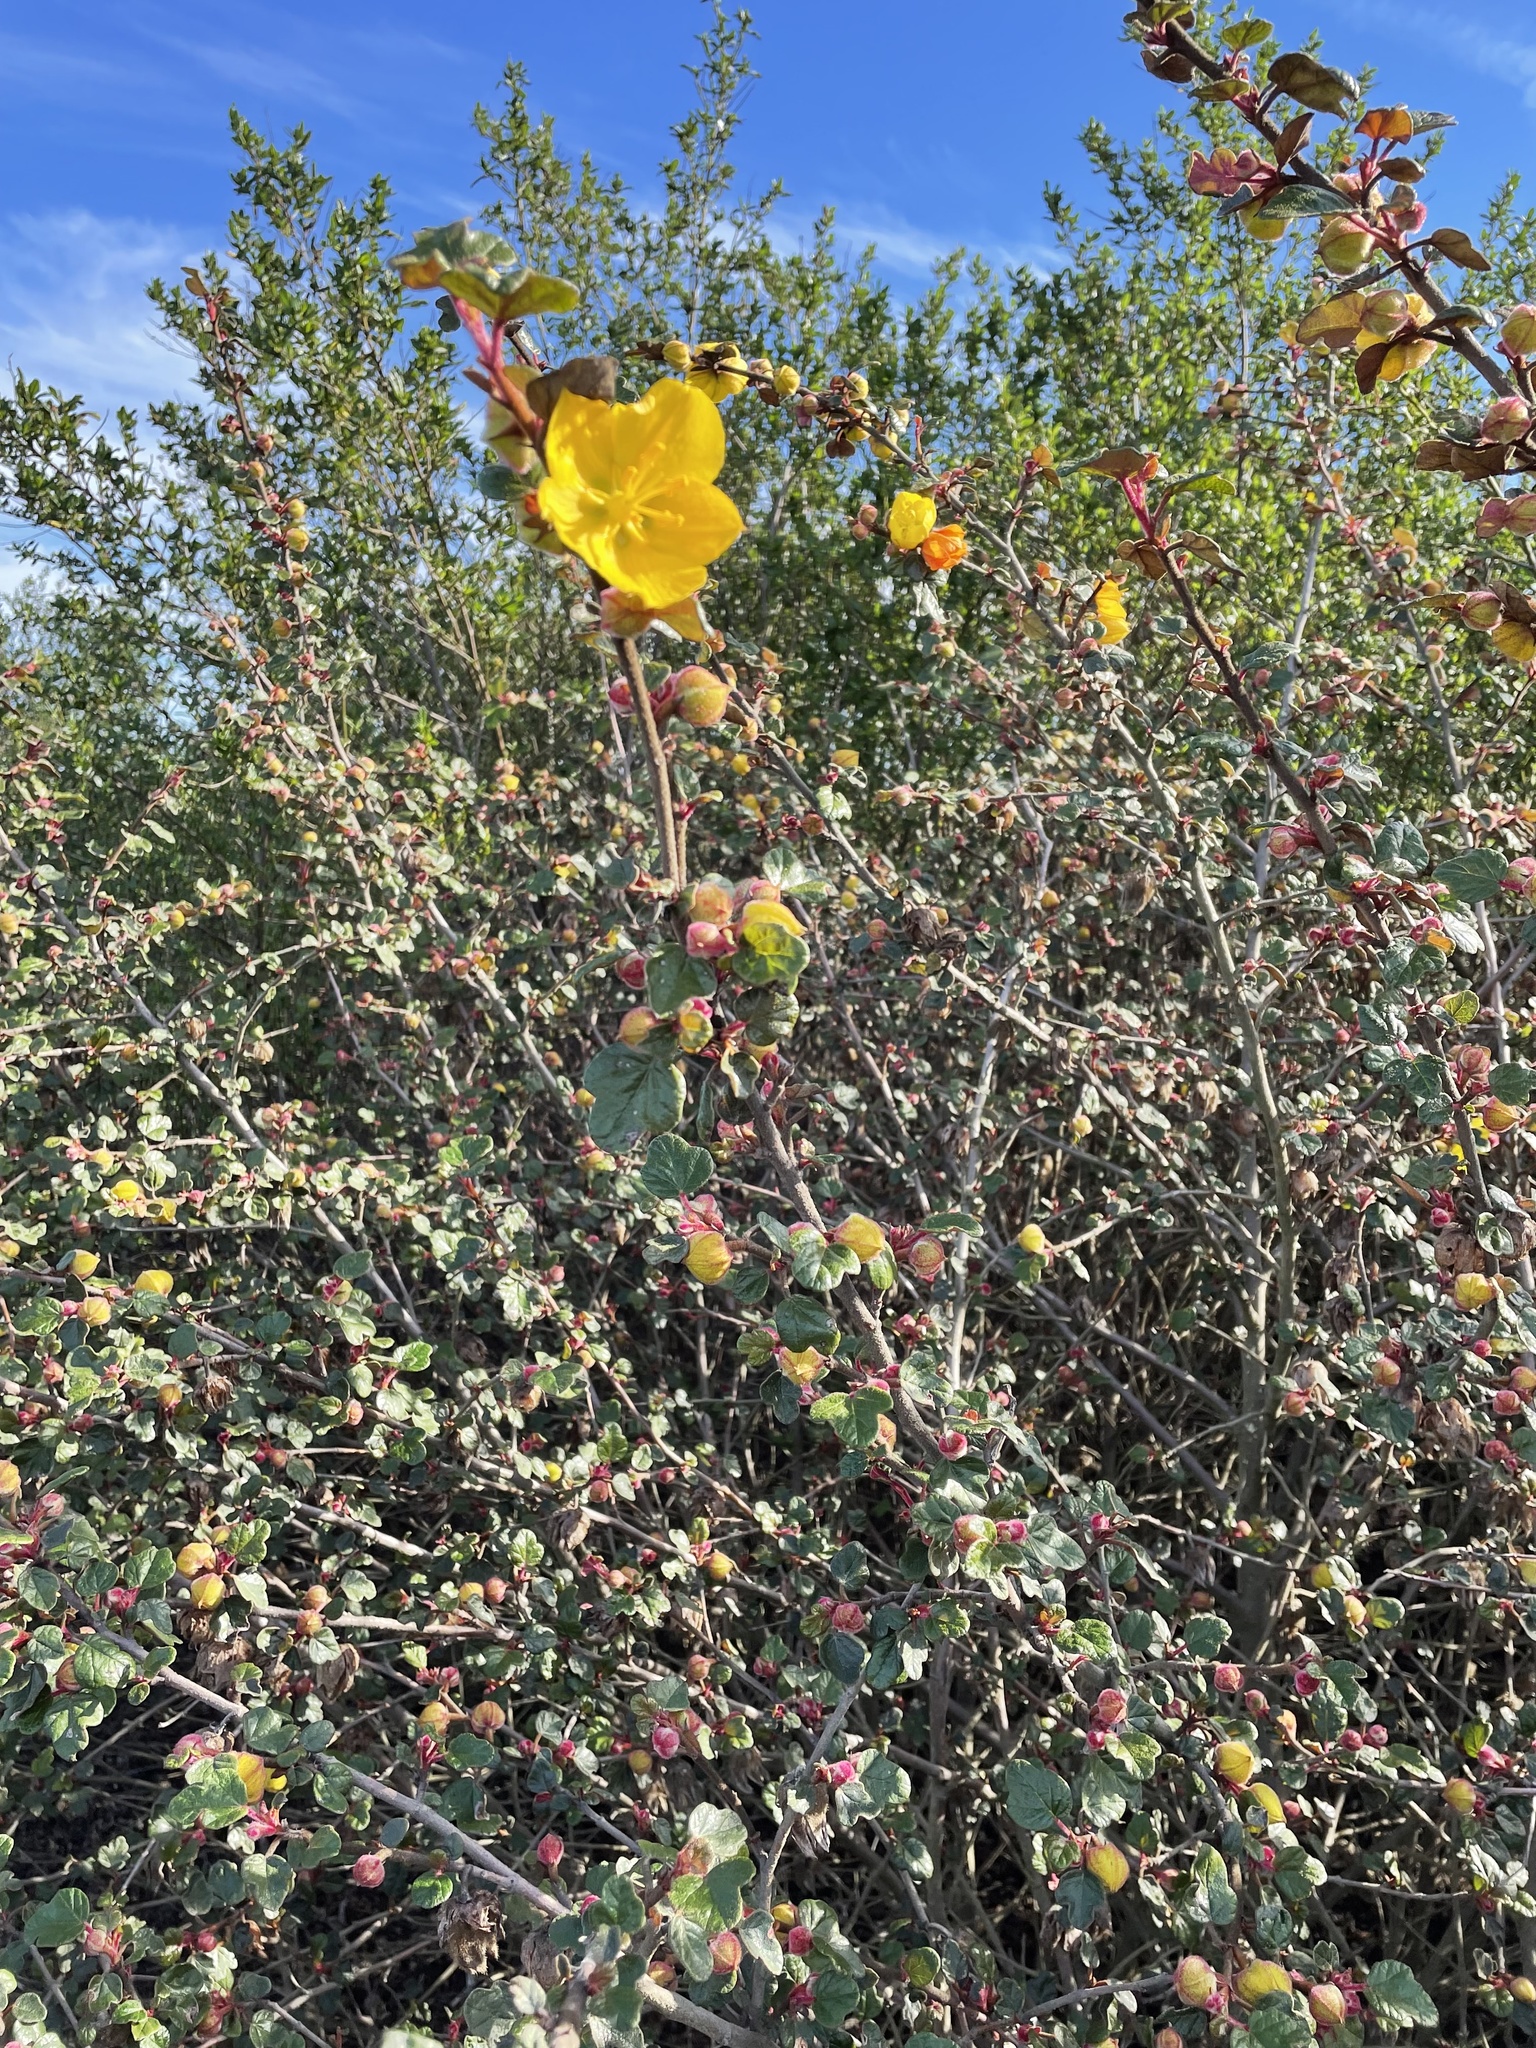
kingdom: Plantae
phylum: Tracheophyta
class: Magnoliopsida
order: Malvales
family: Malvaceae
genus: Fremontodendron
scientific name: Fremontodendron californicum
